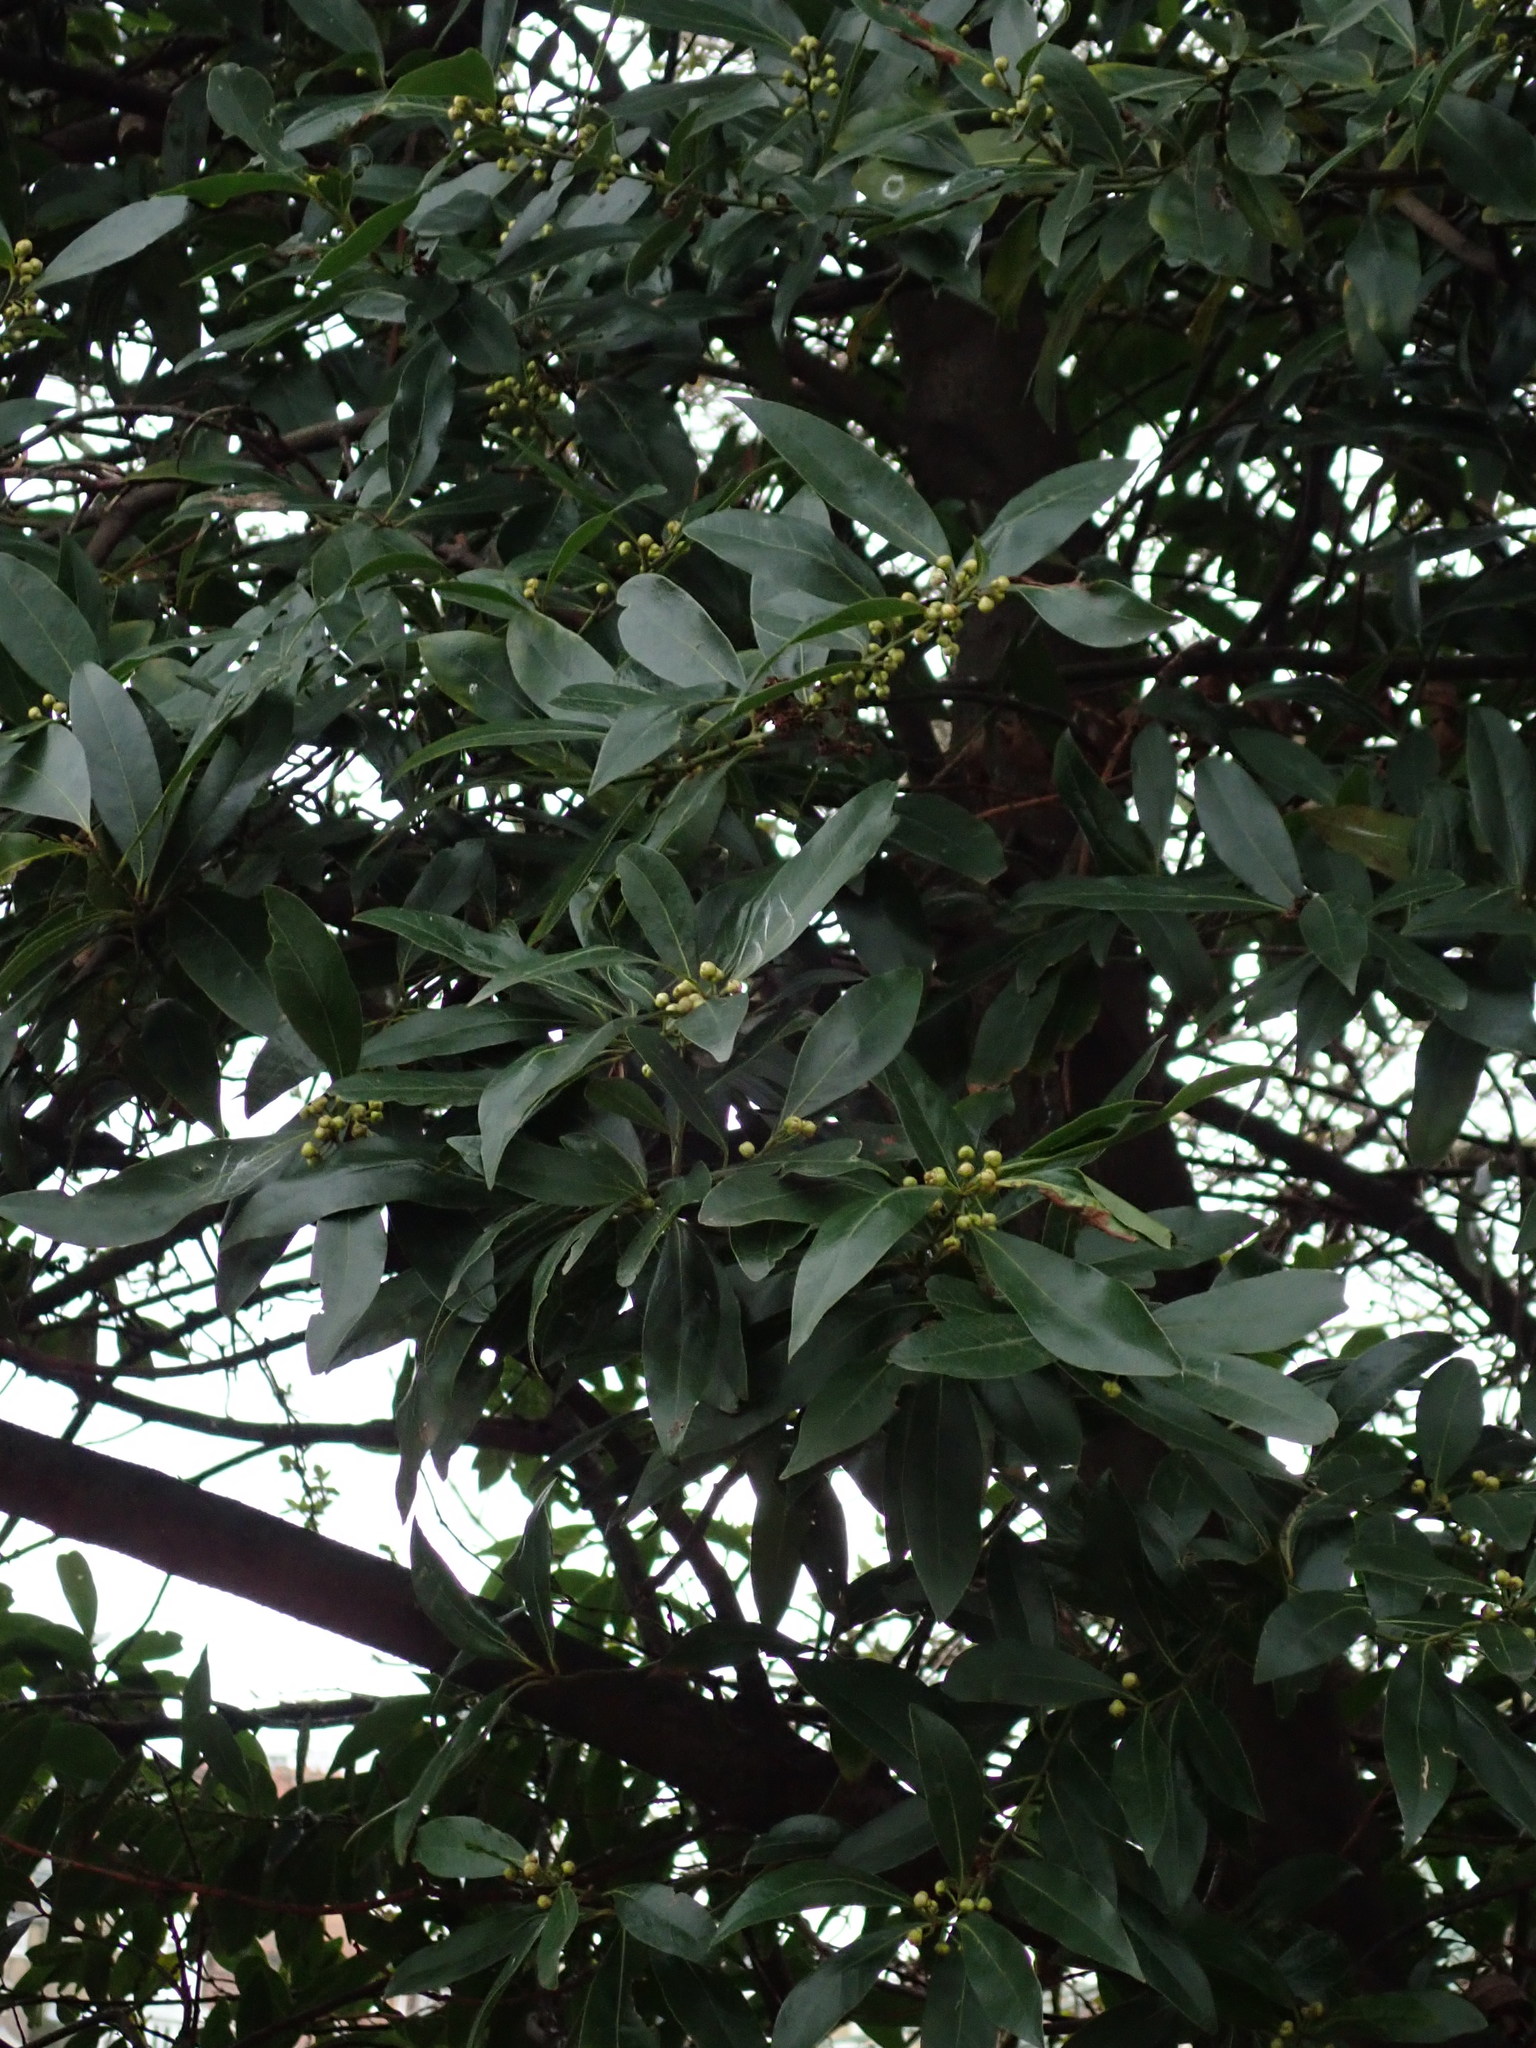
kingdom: Plantae
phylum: Tracheophyta
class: Magnoliopsida
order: Laurales
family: Lauraceae
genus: Laurus
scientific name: Laurus nobilis
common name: Bay
